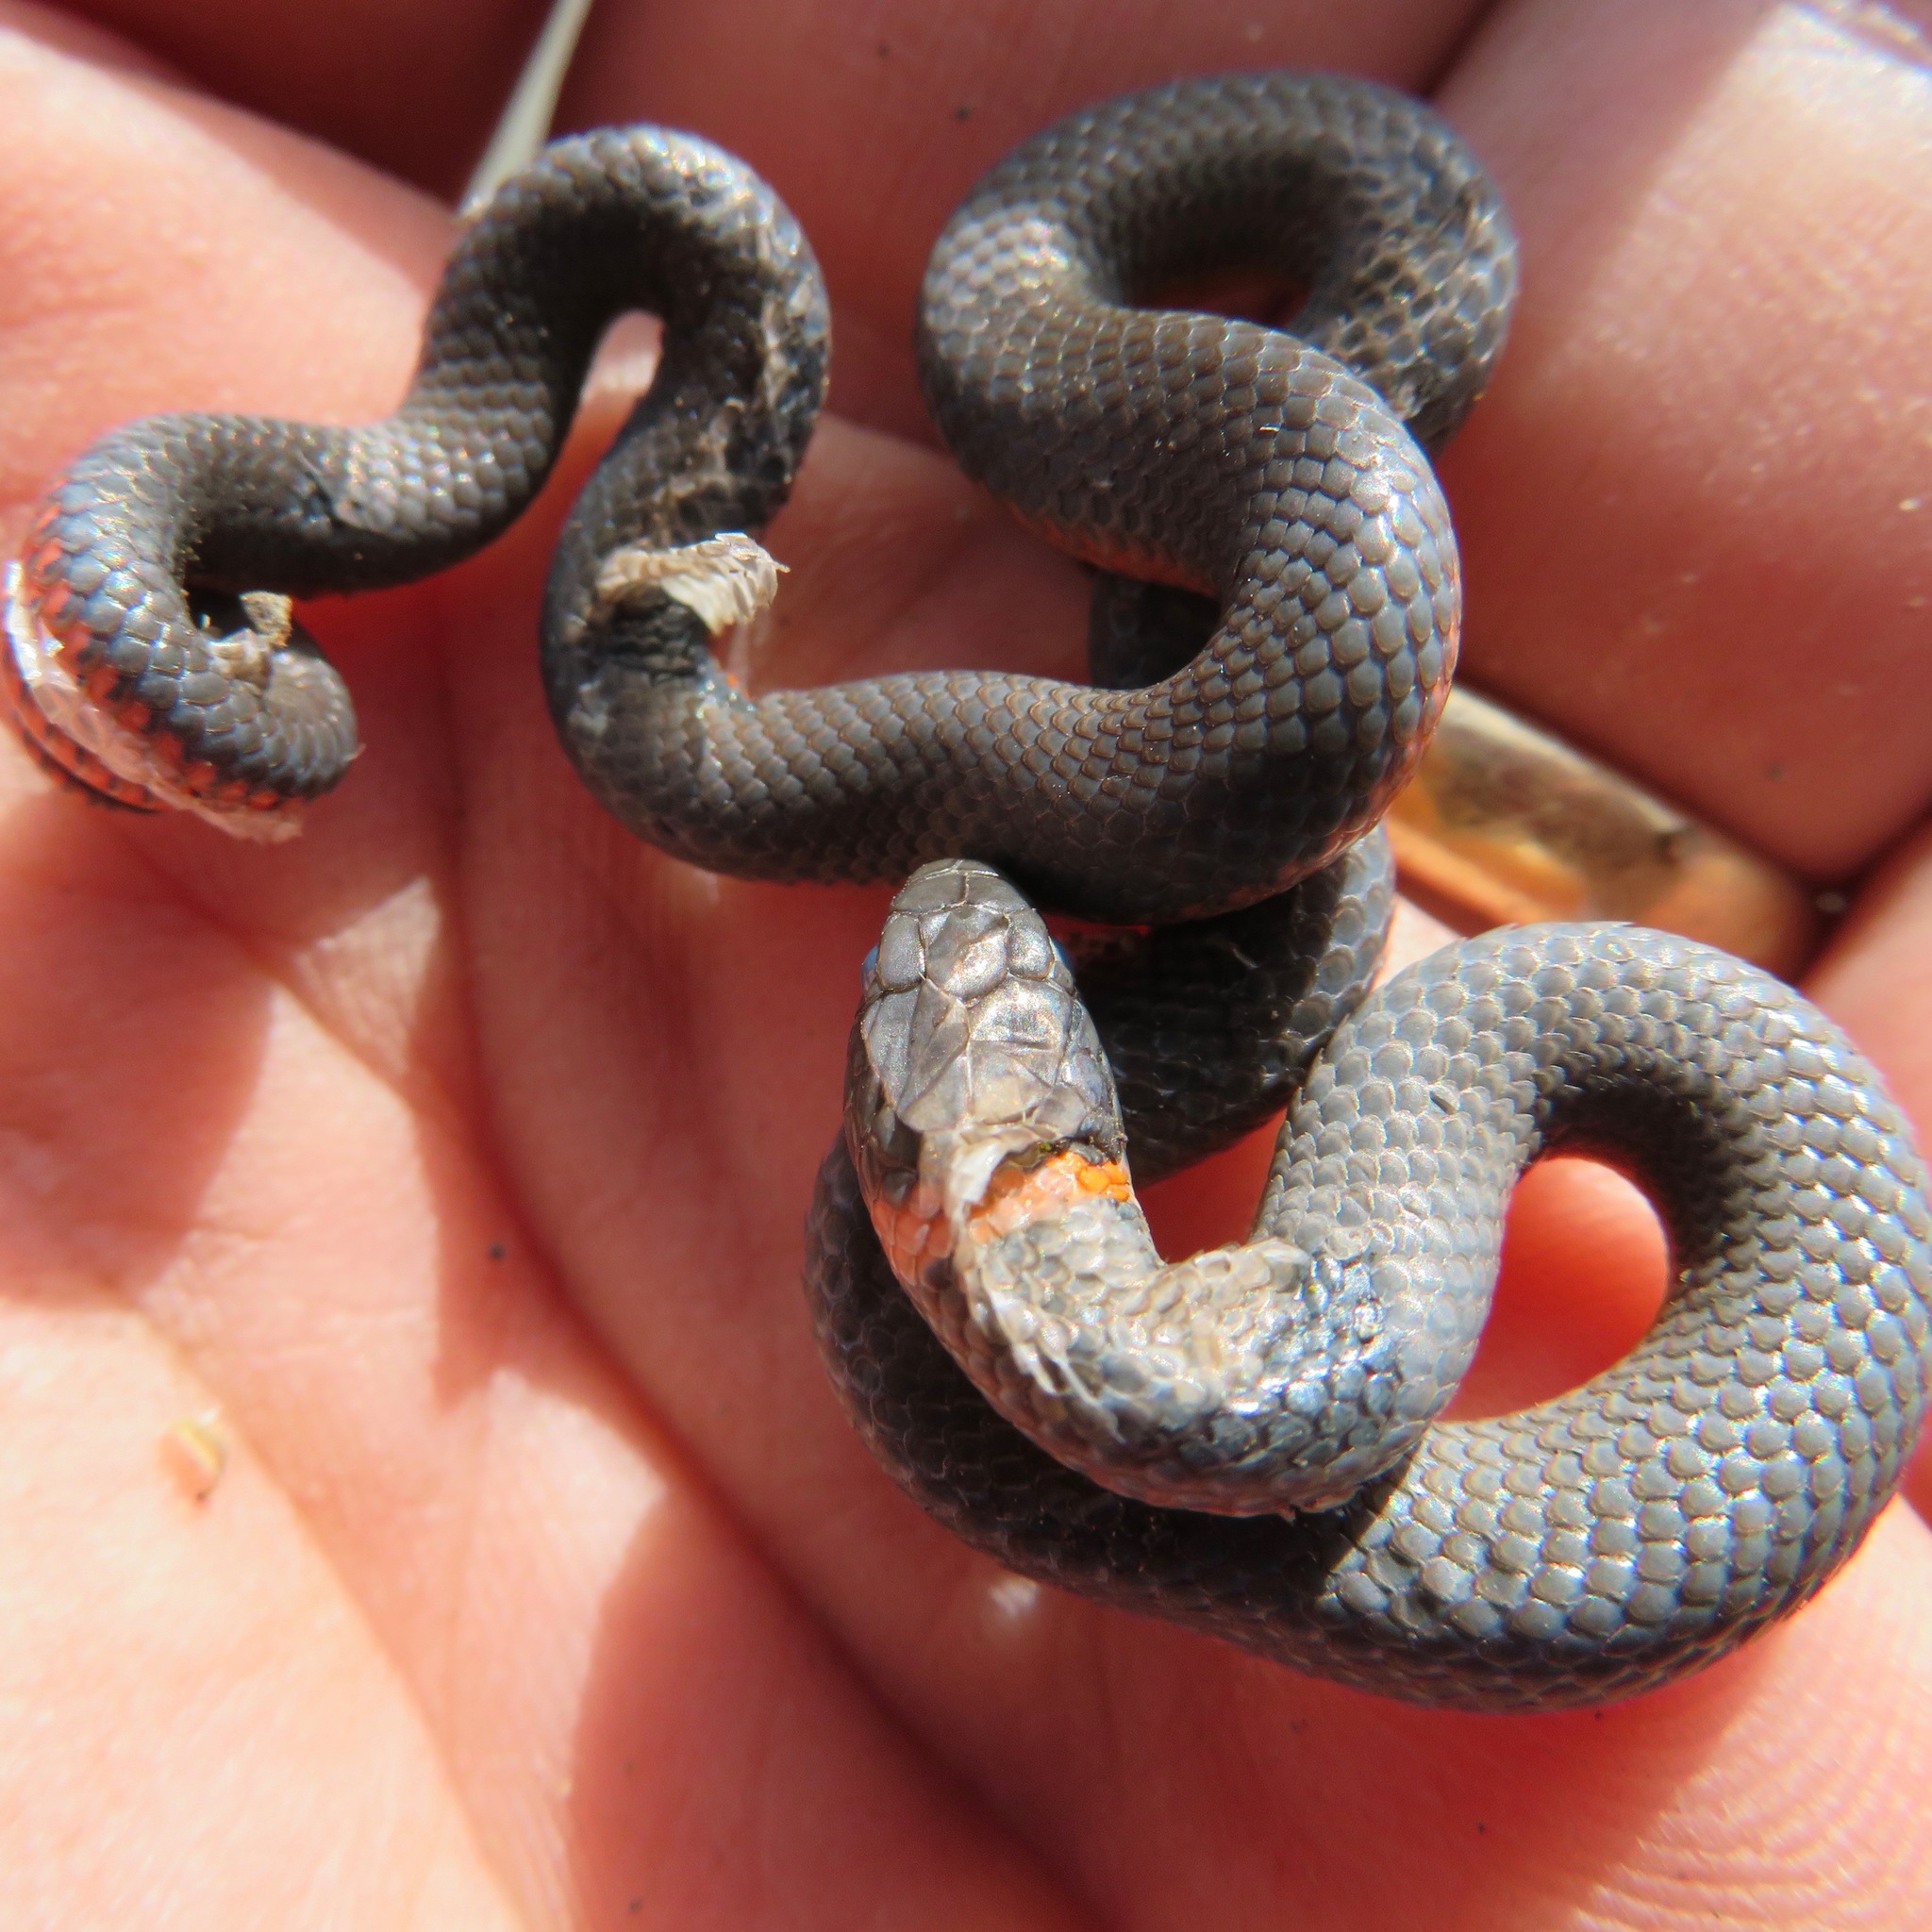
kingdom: Animalia
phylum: Chordata
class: Squamata
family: Colubridae
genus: Diadophis
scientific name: Diadophis punctatus
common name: Ringneck snake
